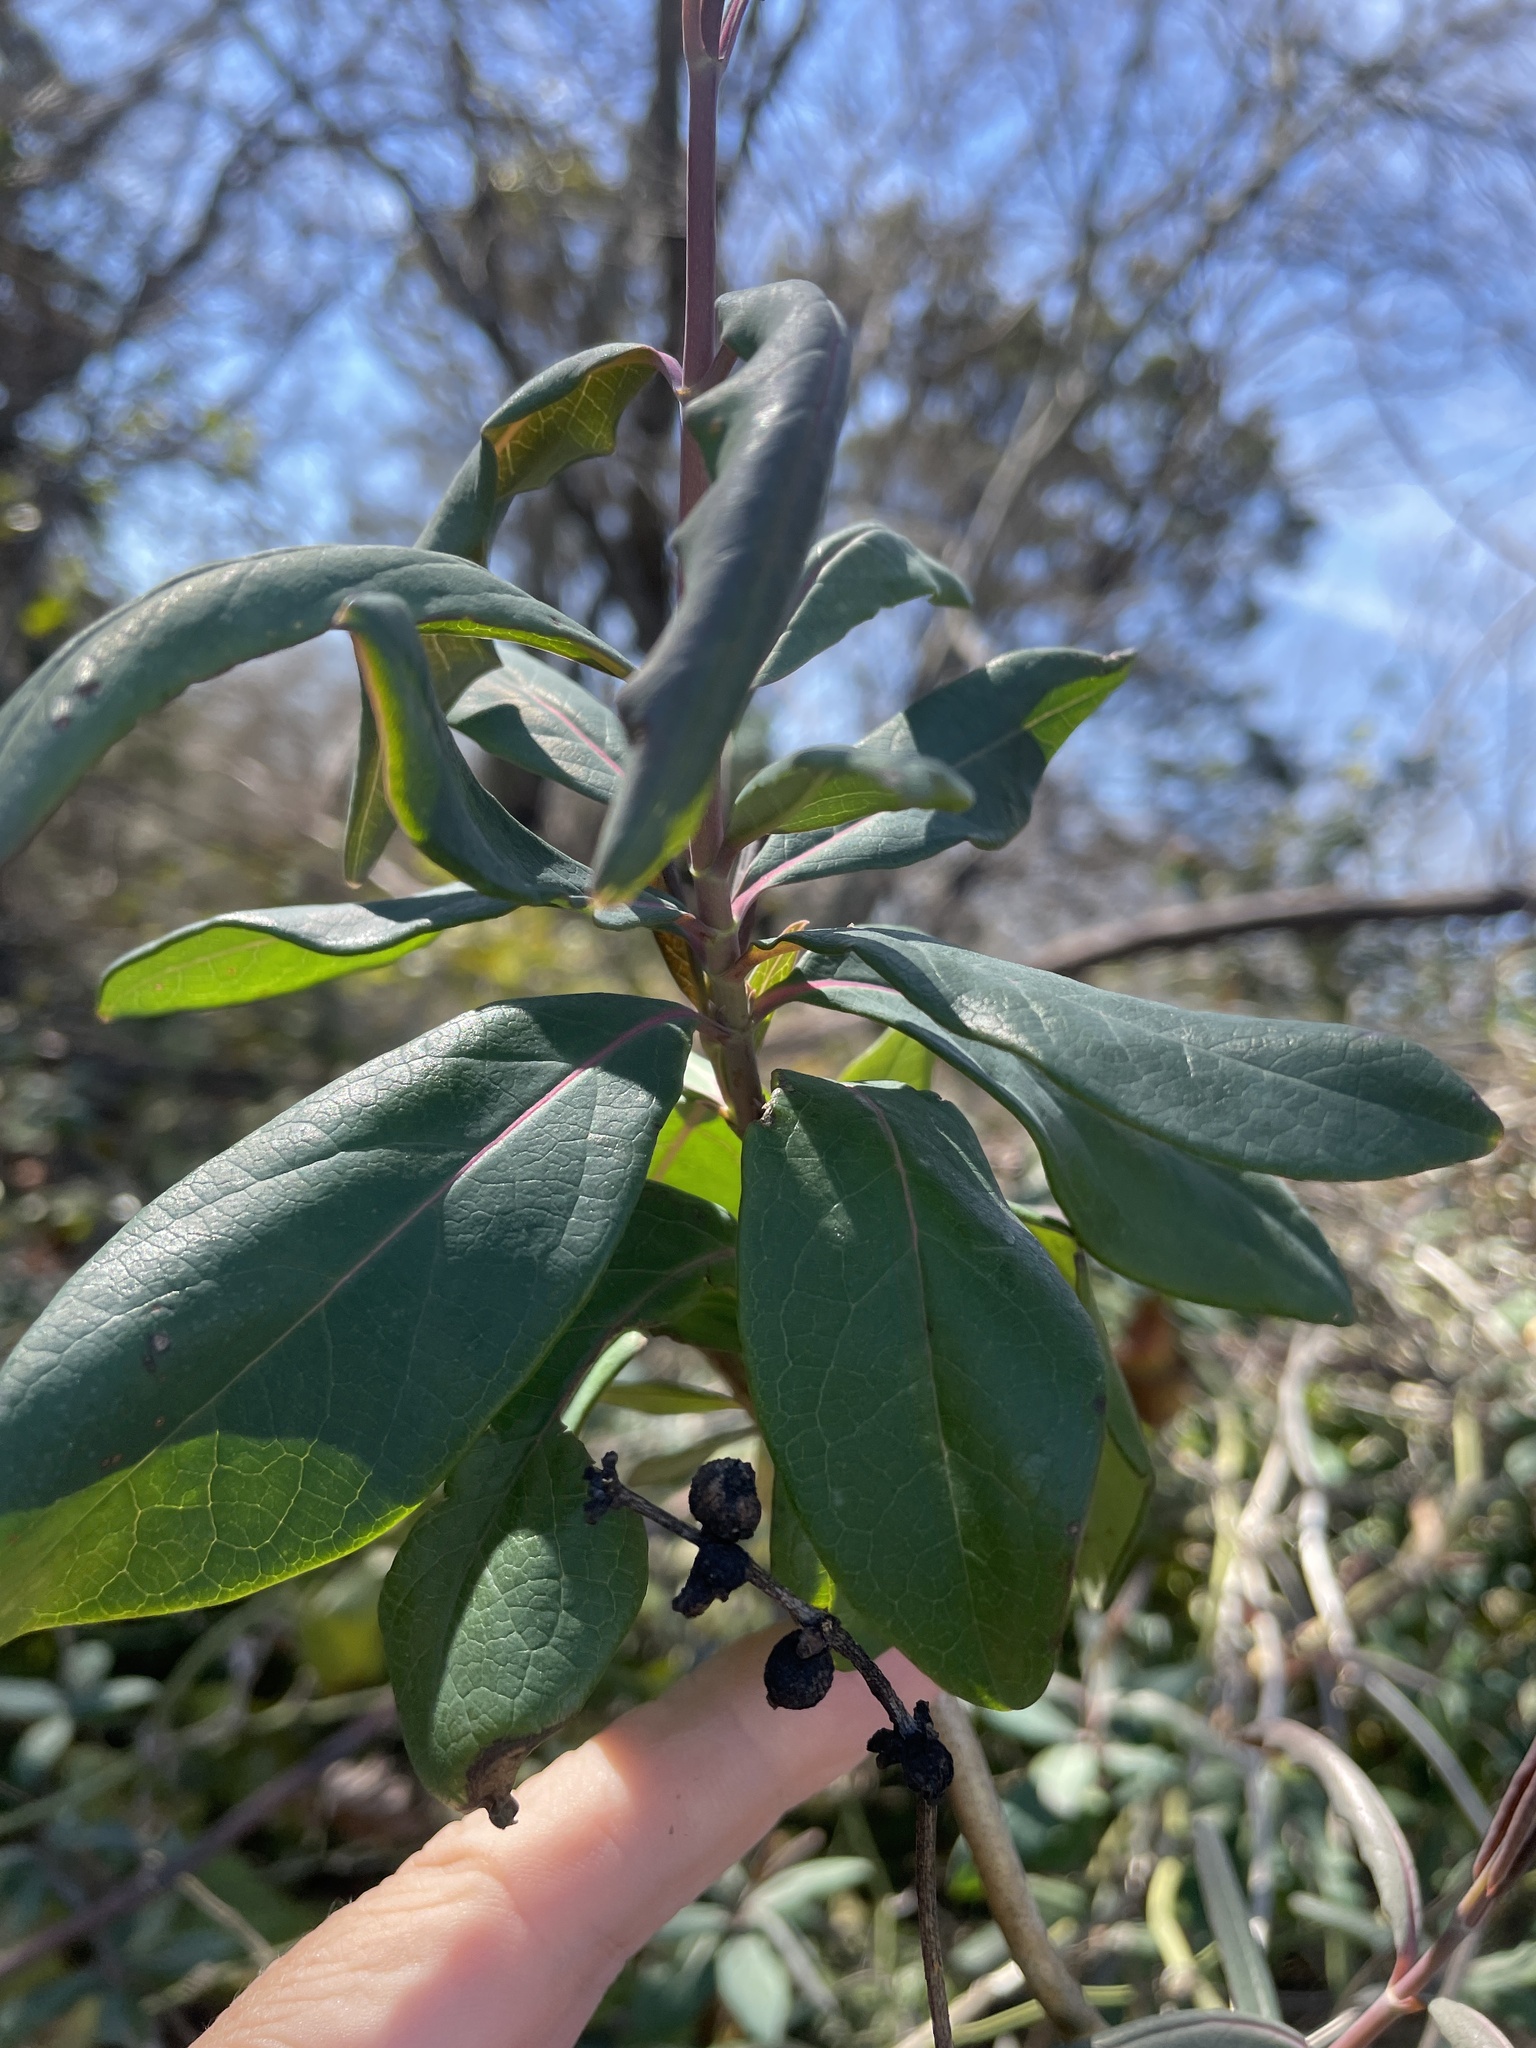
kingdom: Plantae
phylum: Tracheophyta
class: Magnoliopsida
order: Dipsacales
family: Caprifoliaceae
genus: Lonicera
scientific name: Lonicera sempervirens
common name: Coral honeysuckle
